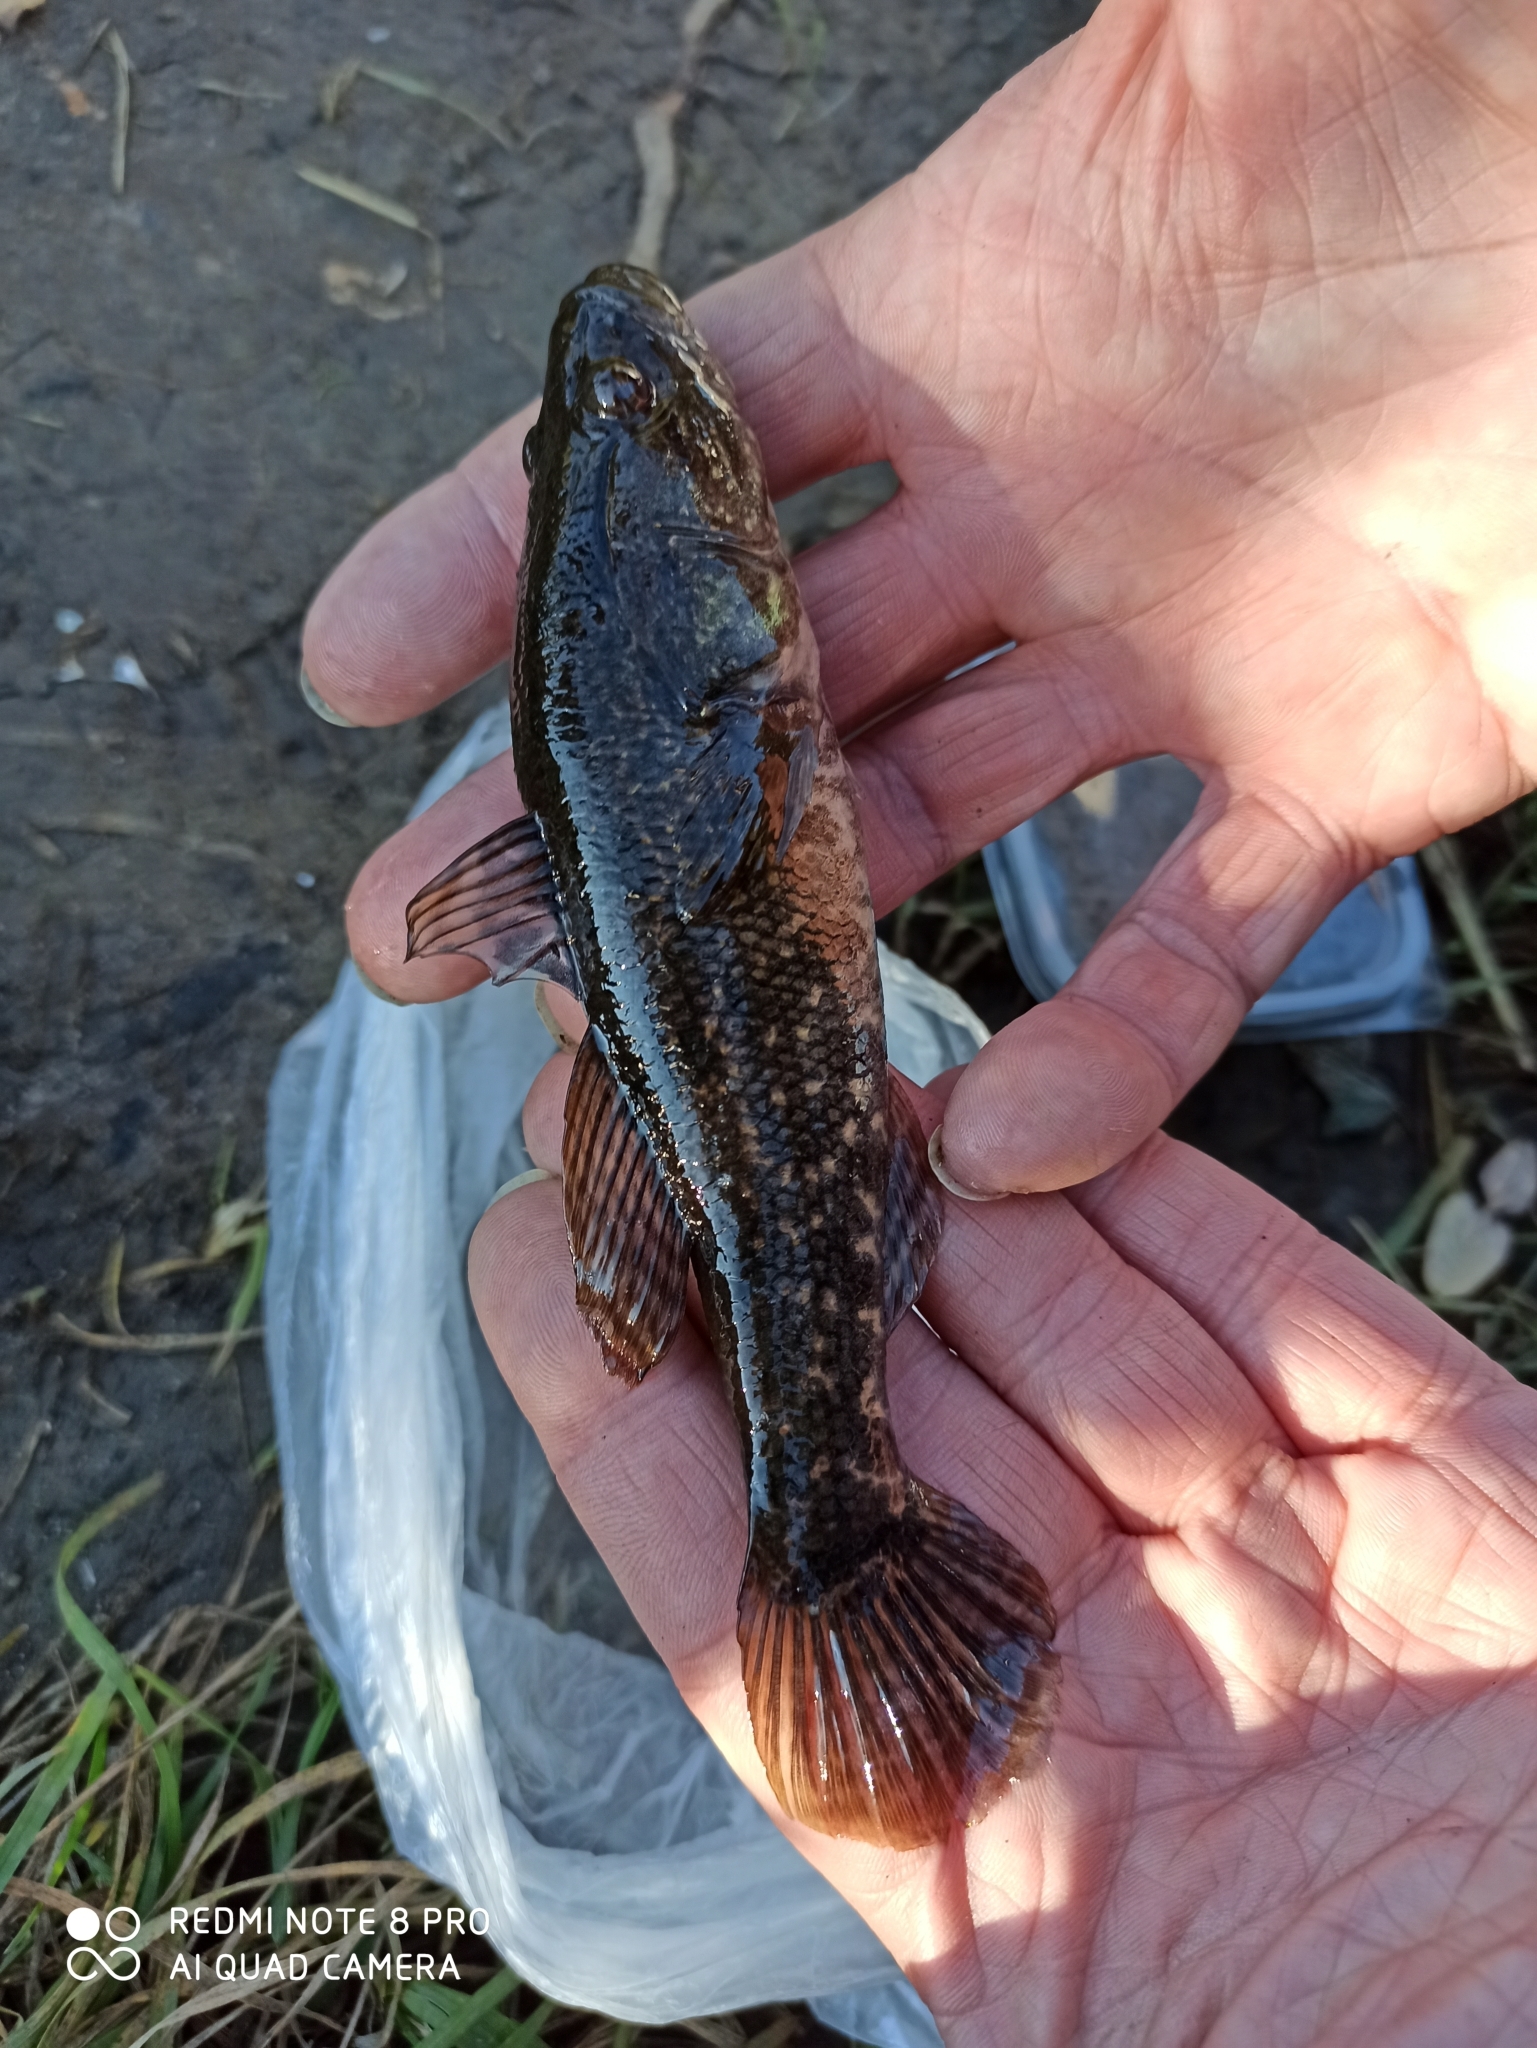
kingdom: Animalia
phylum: Chordata
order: Perciformes
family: Odontobutidae
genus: Perccottus
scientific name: Perccottus glenii
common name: Amur sleeper
